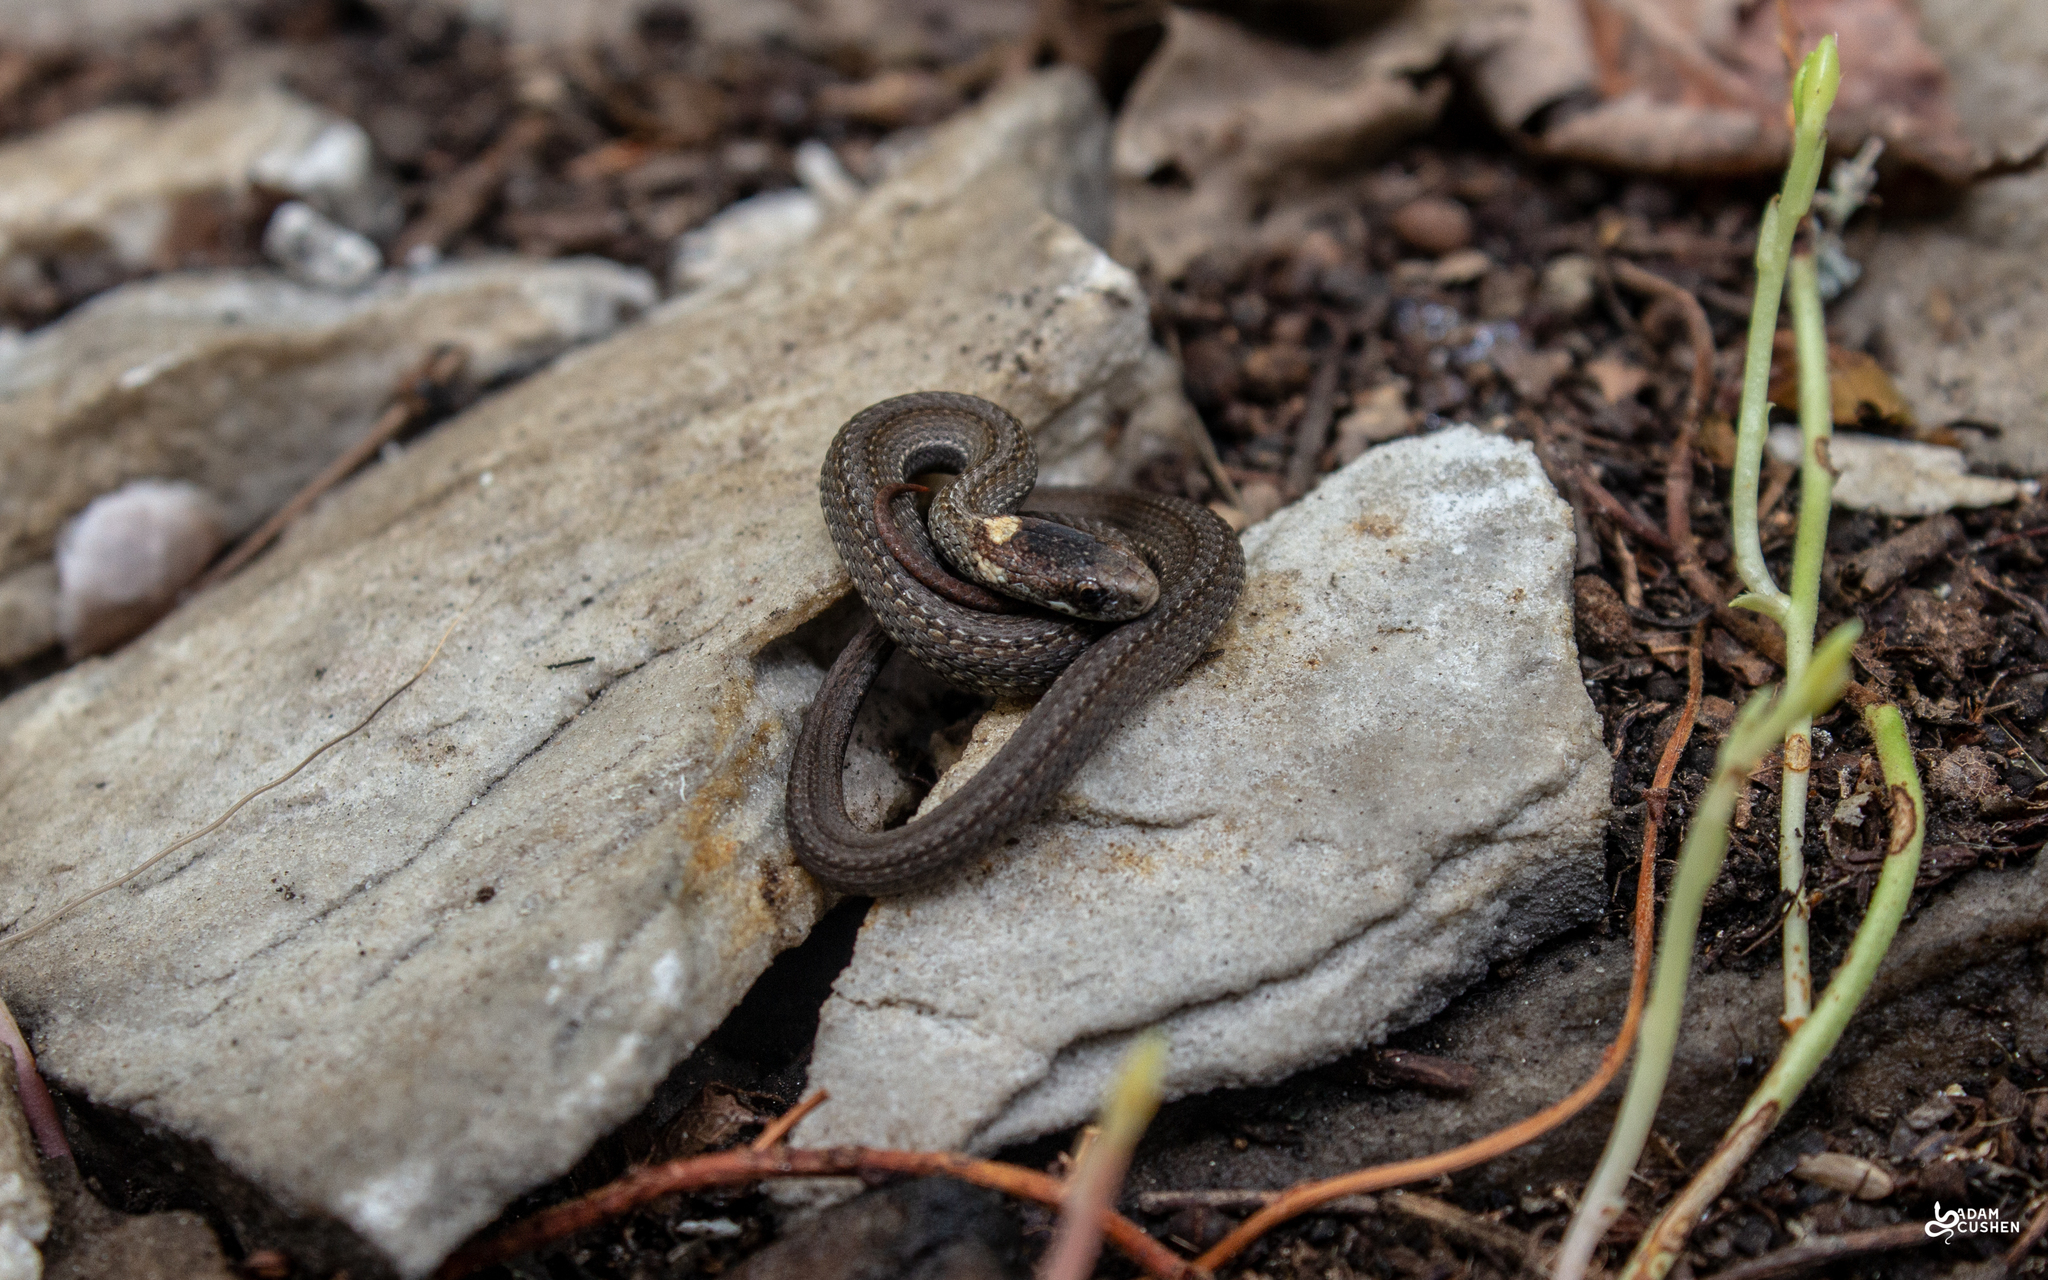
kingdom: Animalia
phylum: Chordata
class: Squamata
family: Colubridae
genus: Storeria
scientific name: Storeria occipitomaculata
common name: Redbelly snake
